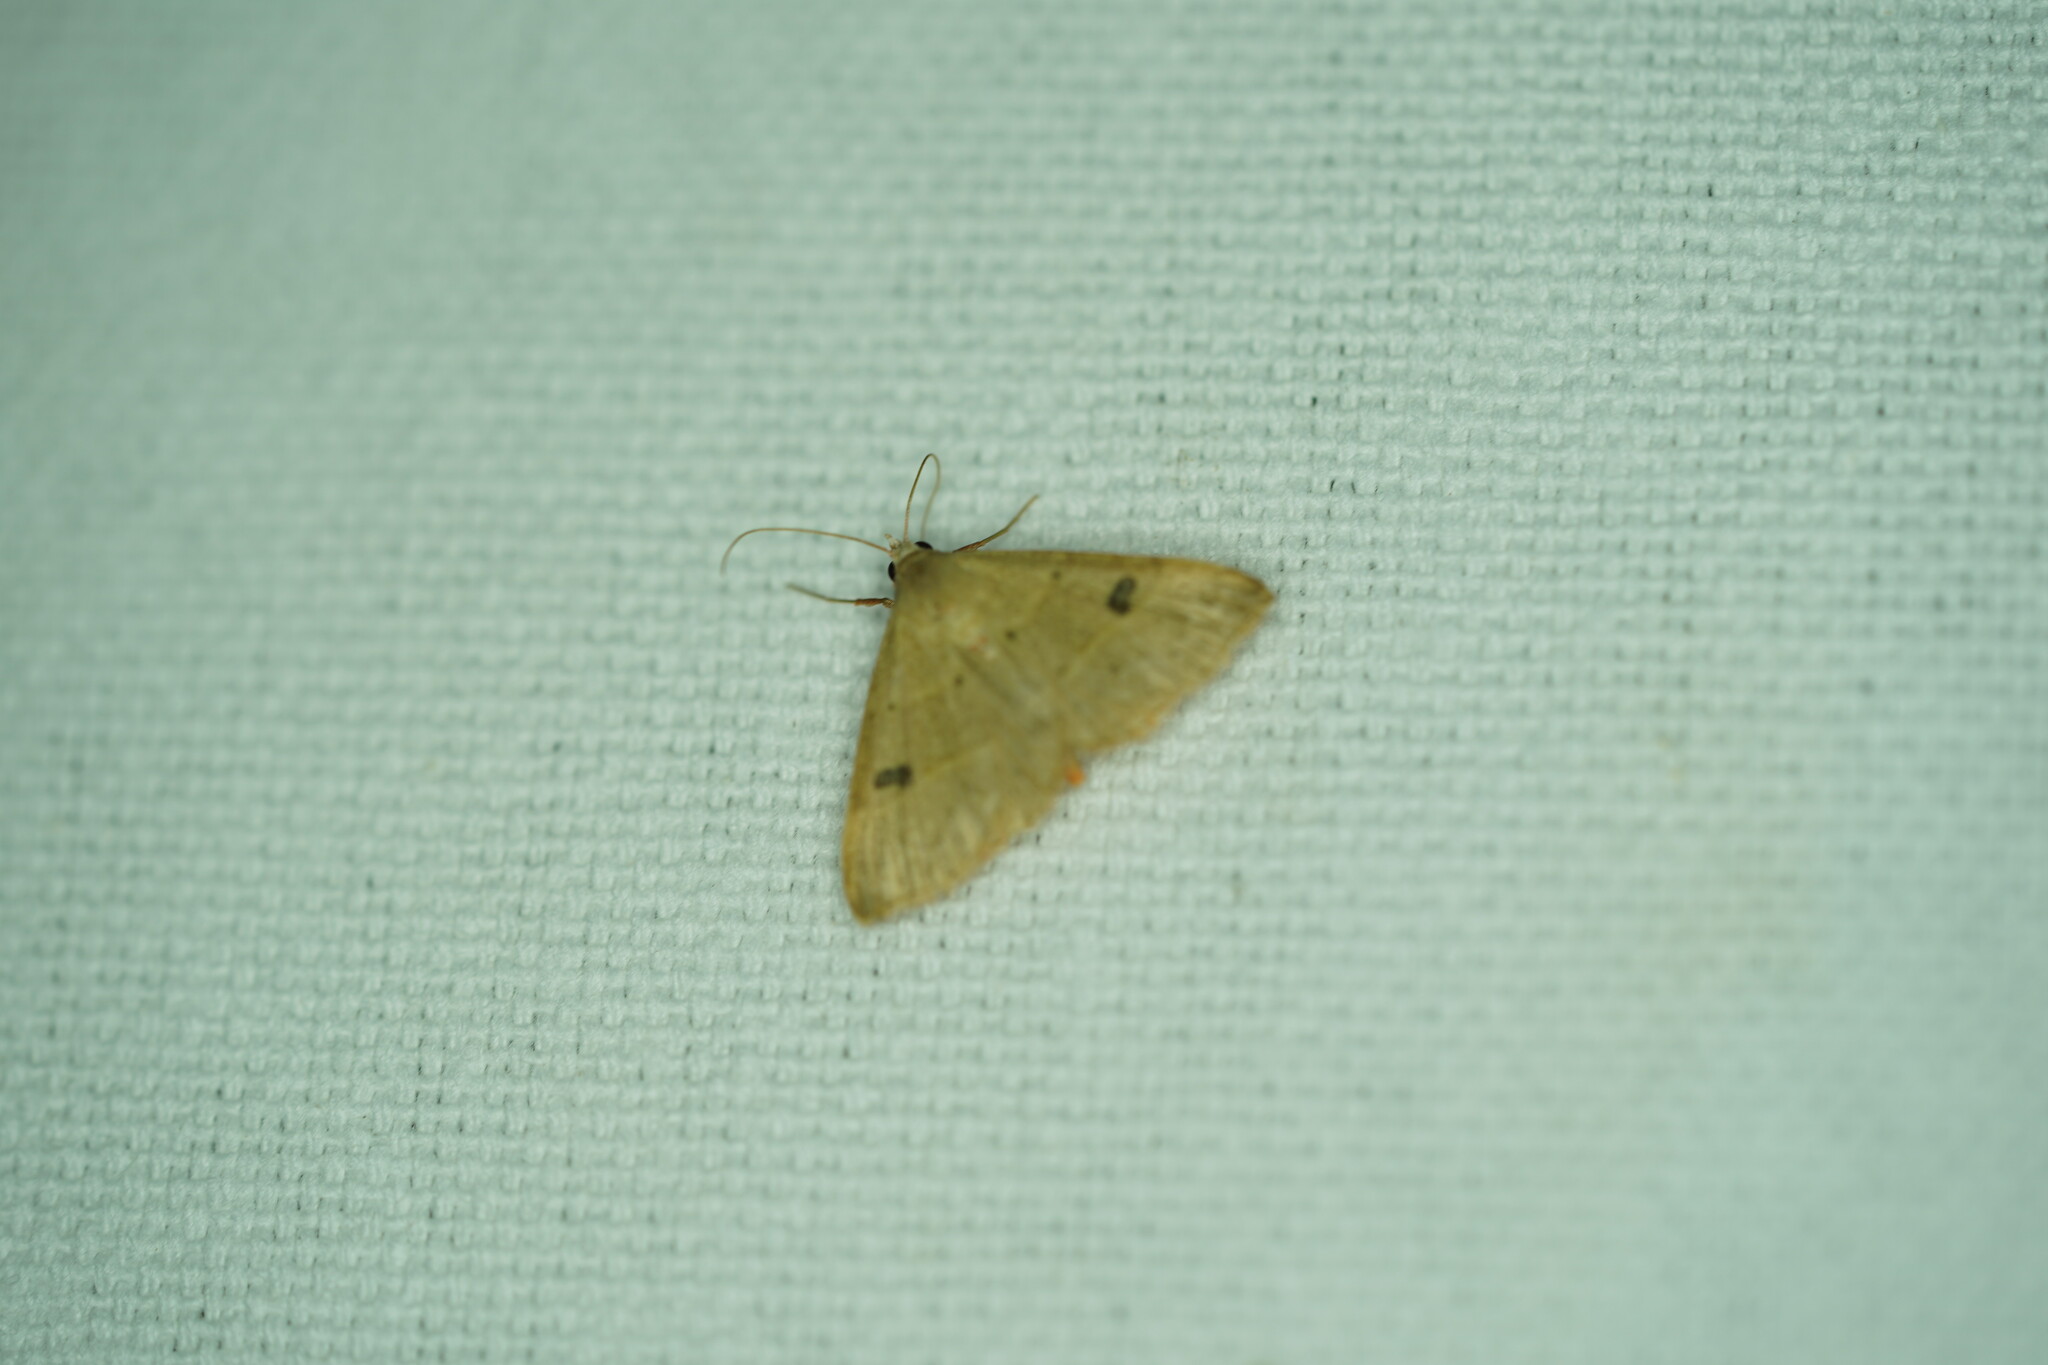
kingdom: Animalia
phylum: Arthropoda
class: Insecta
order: Lepidoptera
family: Erebidae
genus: Hemeroplanis
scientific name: Hemeroplanis habitalis
